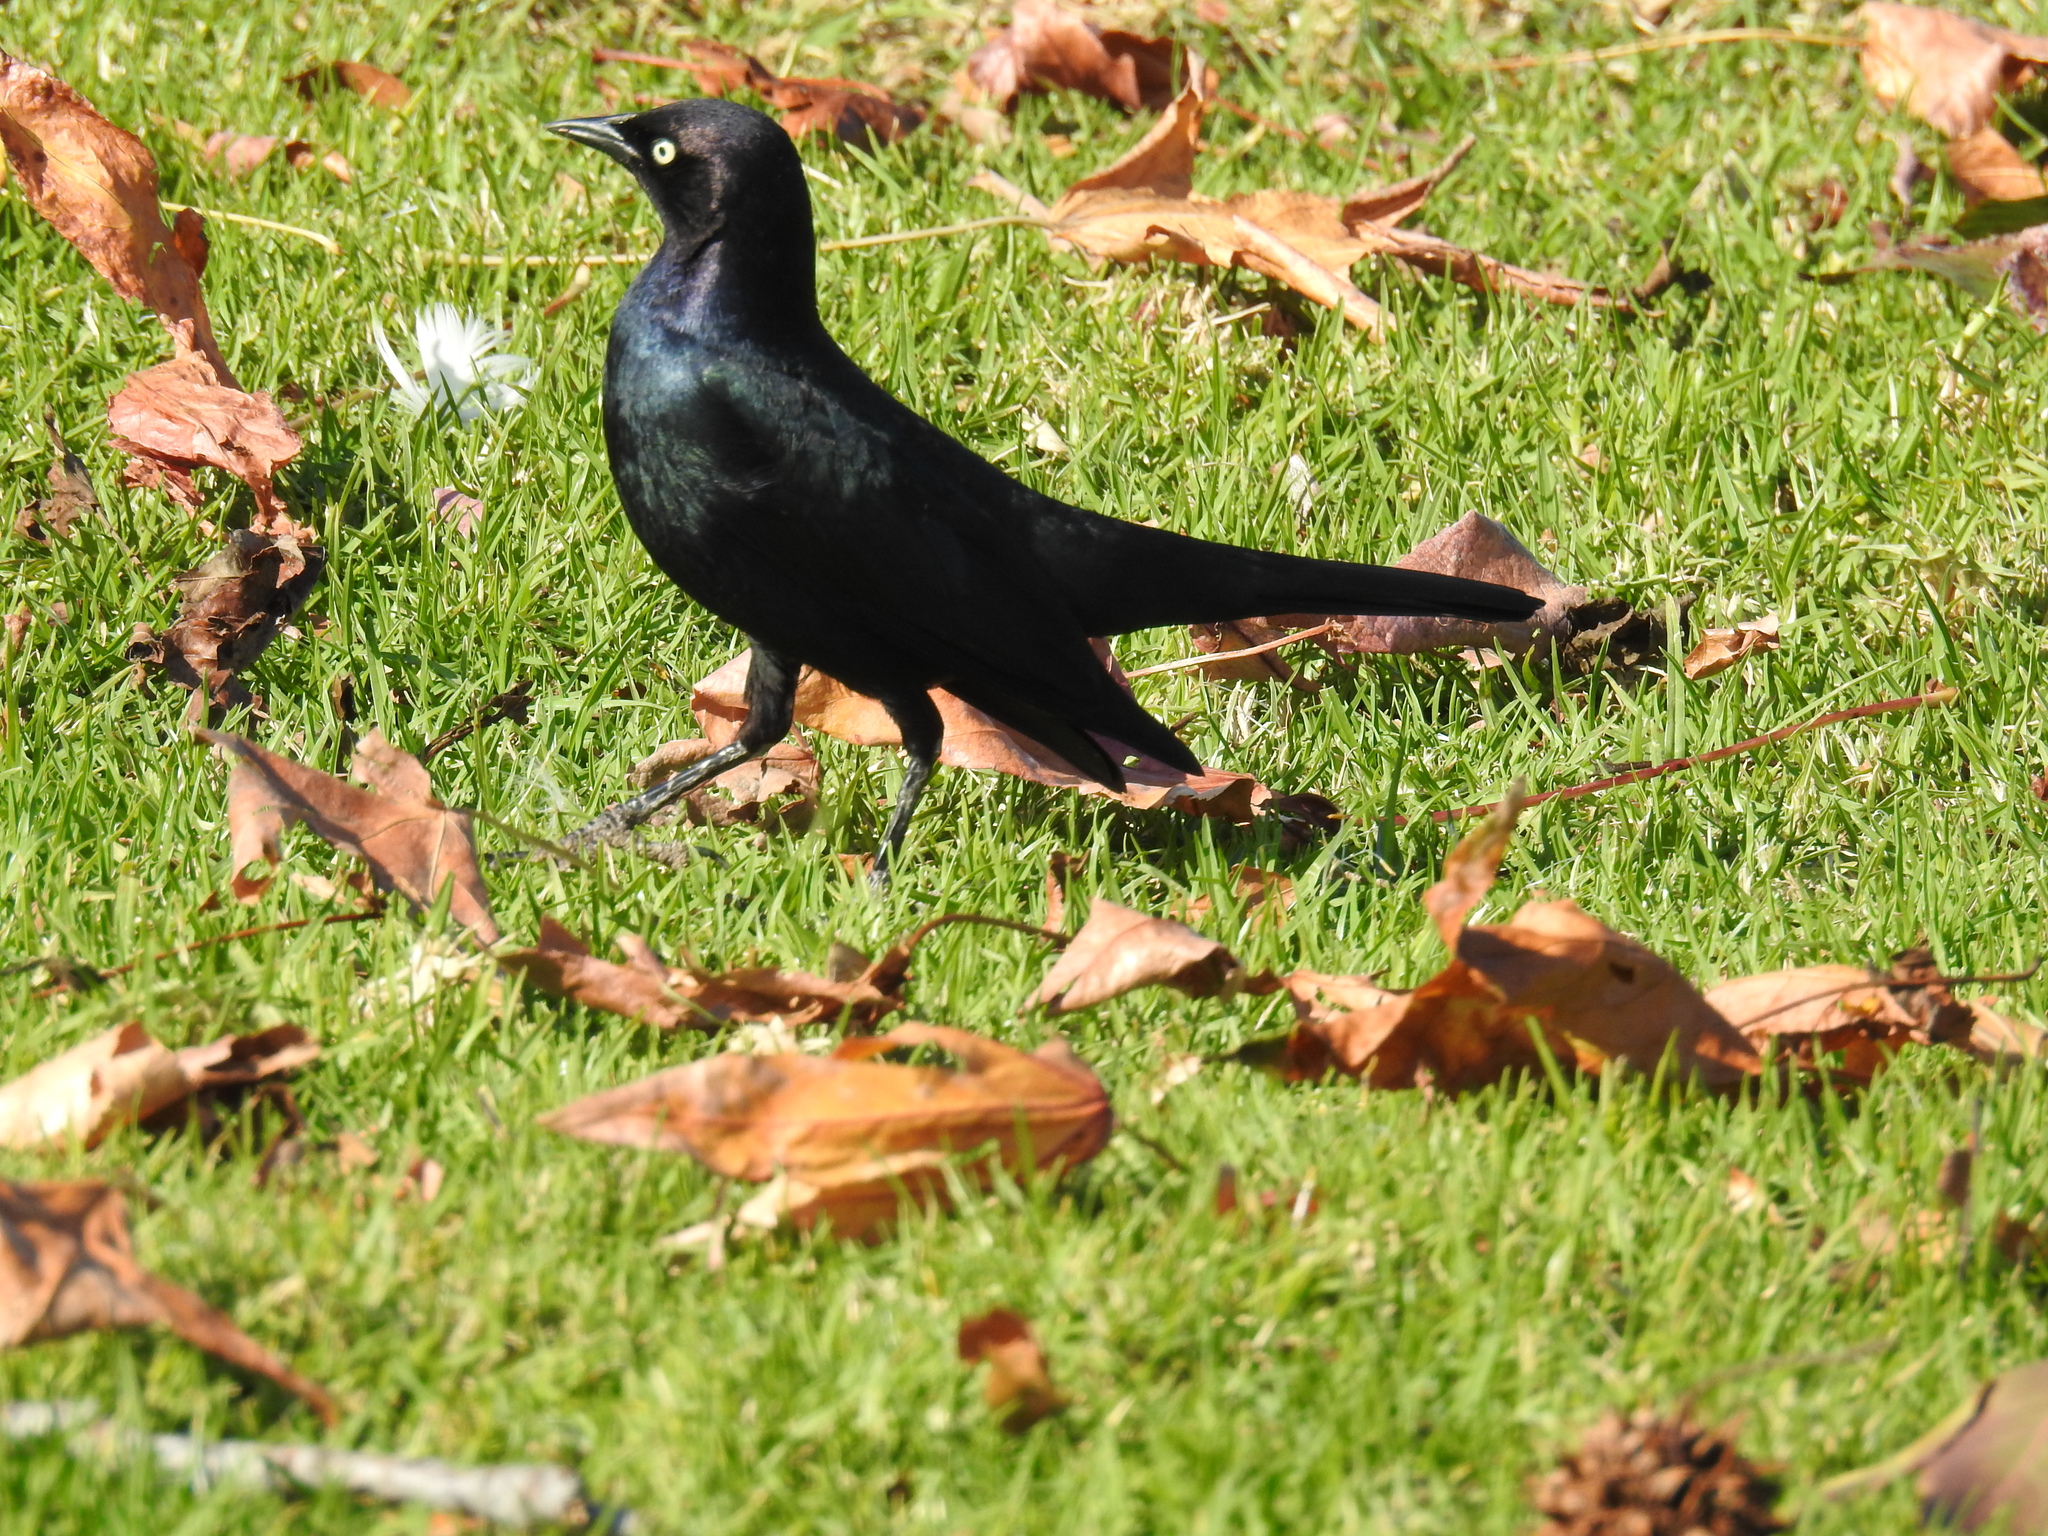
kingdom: Animalia
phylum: Chordata
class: Aves
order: Passeriformes
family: Icteridae
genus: Euphagus
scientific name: Euphagus cyanocephalus
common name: Brewer's blackbird
